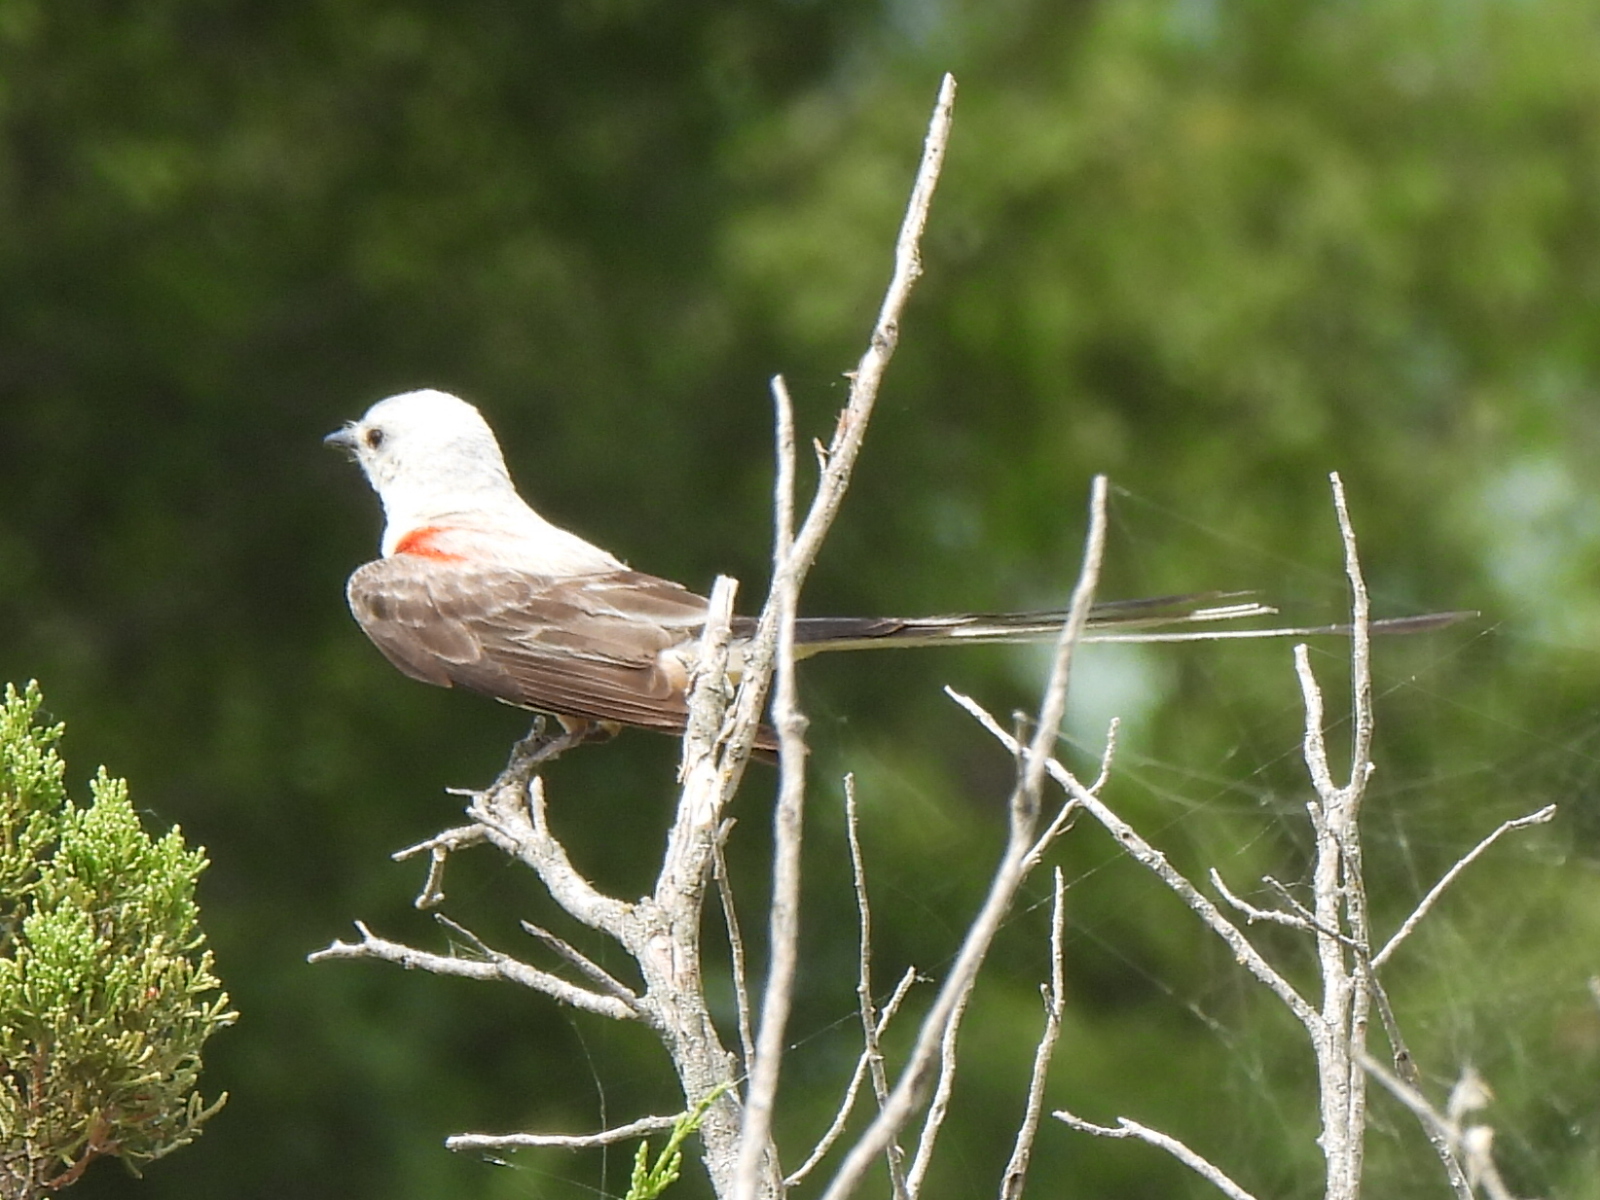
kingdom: Animalia
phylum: Chordata
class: Aves
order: Passeriformes
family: Tyrannidae
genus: Tyrannus
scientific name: Tyrannus forficatus
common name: Scissor-tailed flycatcher
